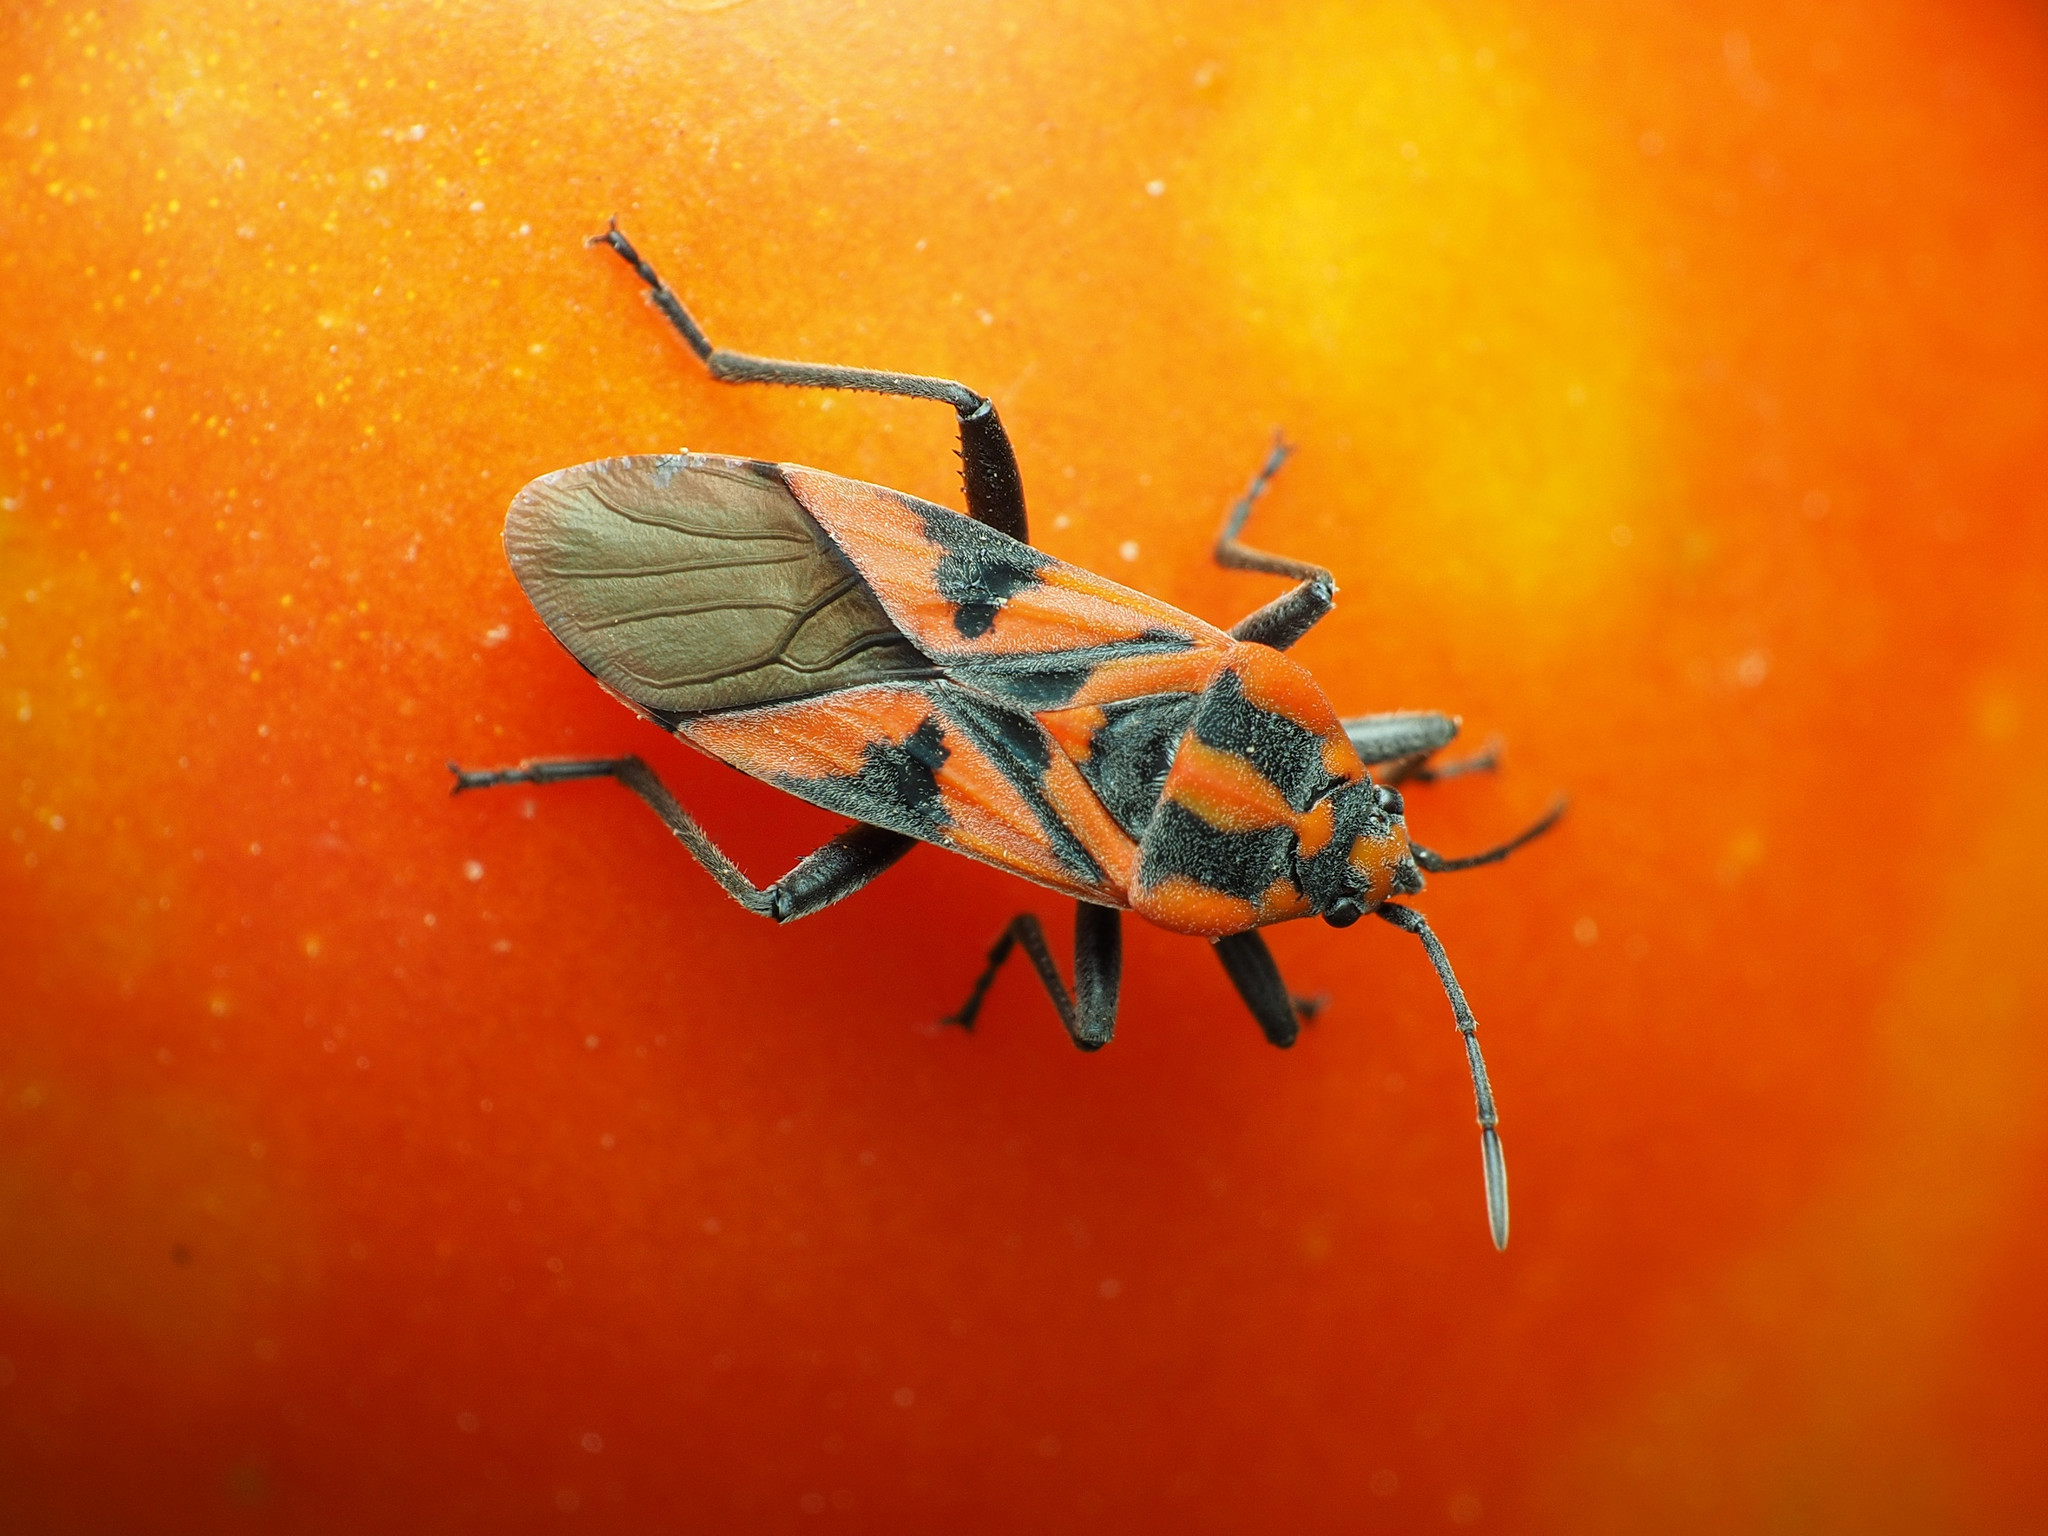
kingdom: Animalia
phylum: Arthropoda
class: Insecta
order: Hemiptera
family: Lygaeidae
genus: Spilostethus
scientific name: Spilostethus furcula
